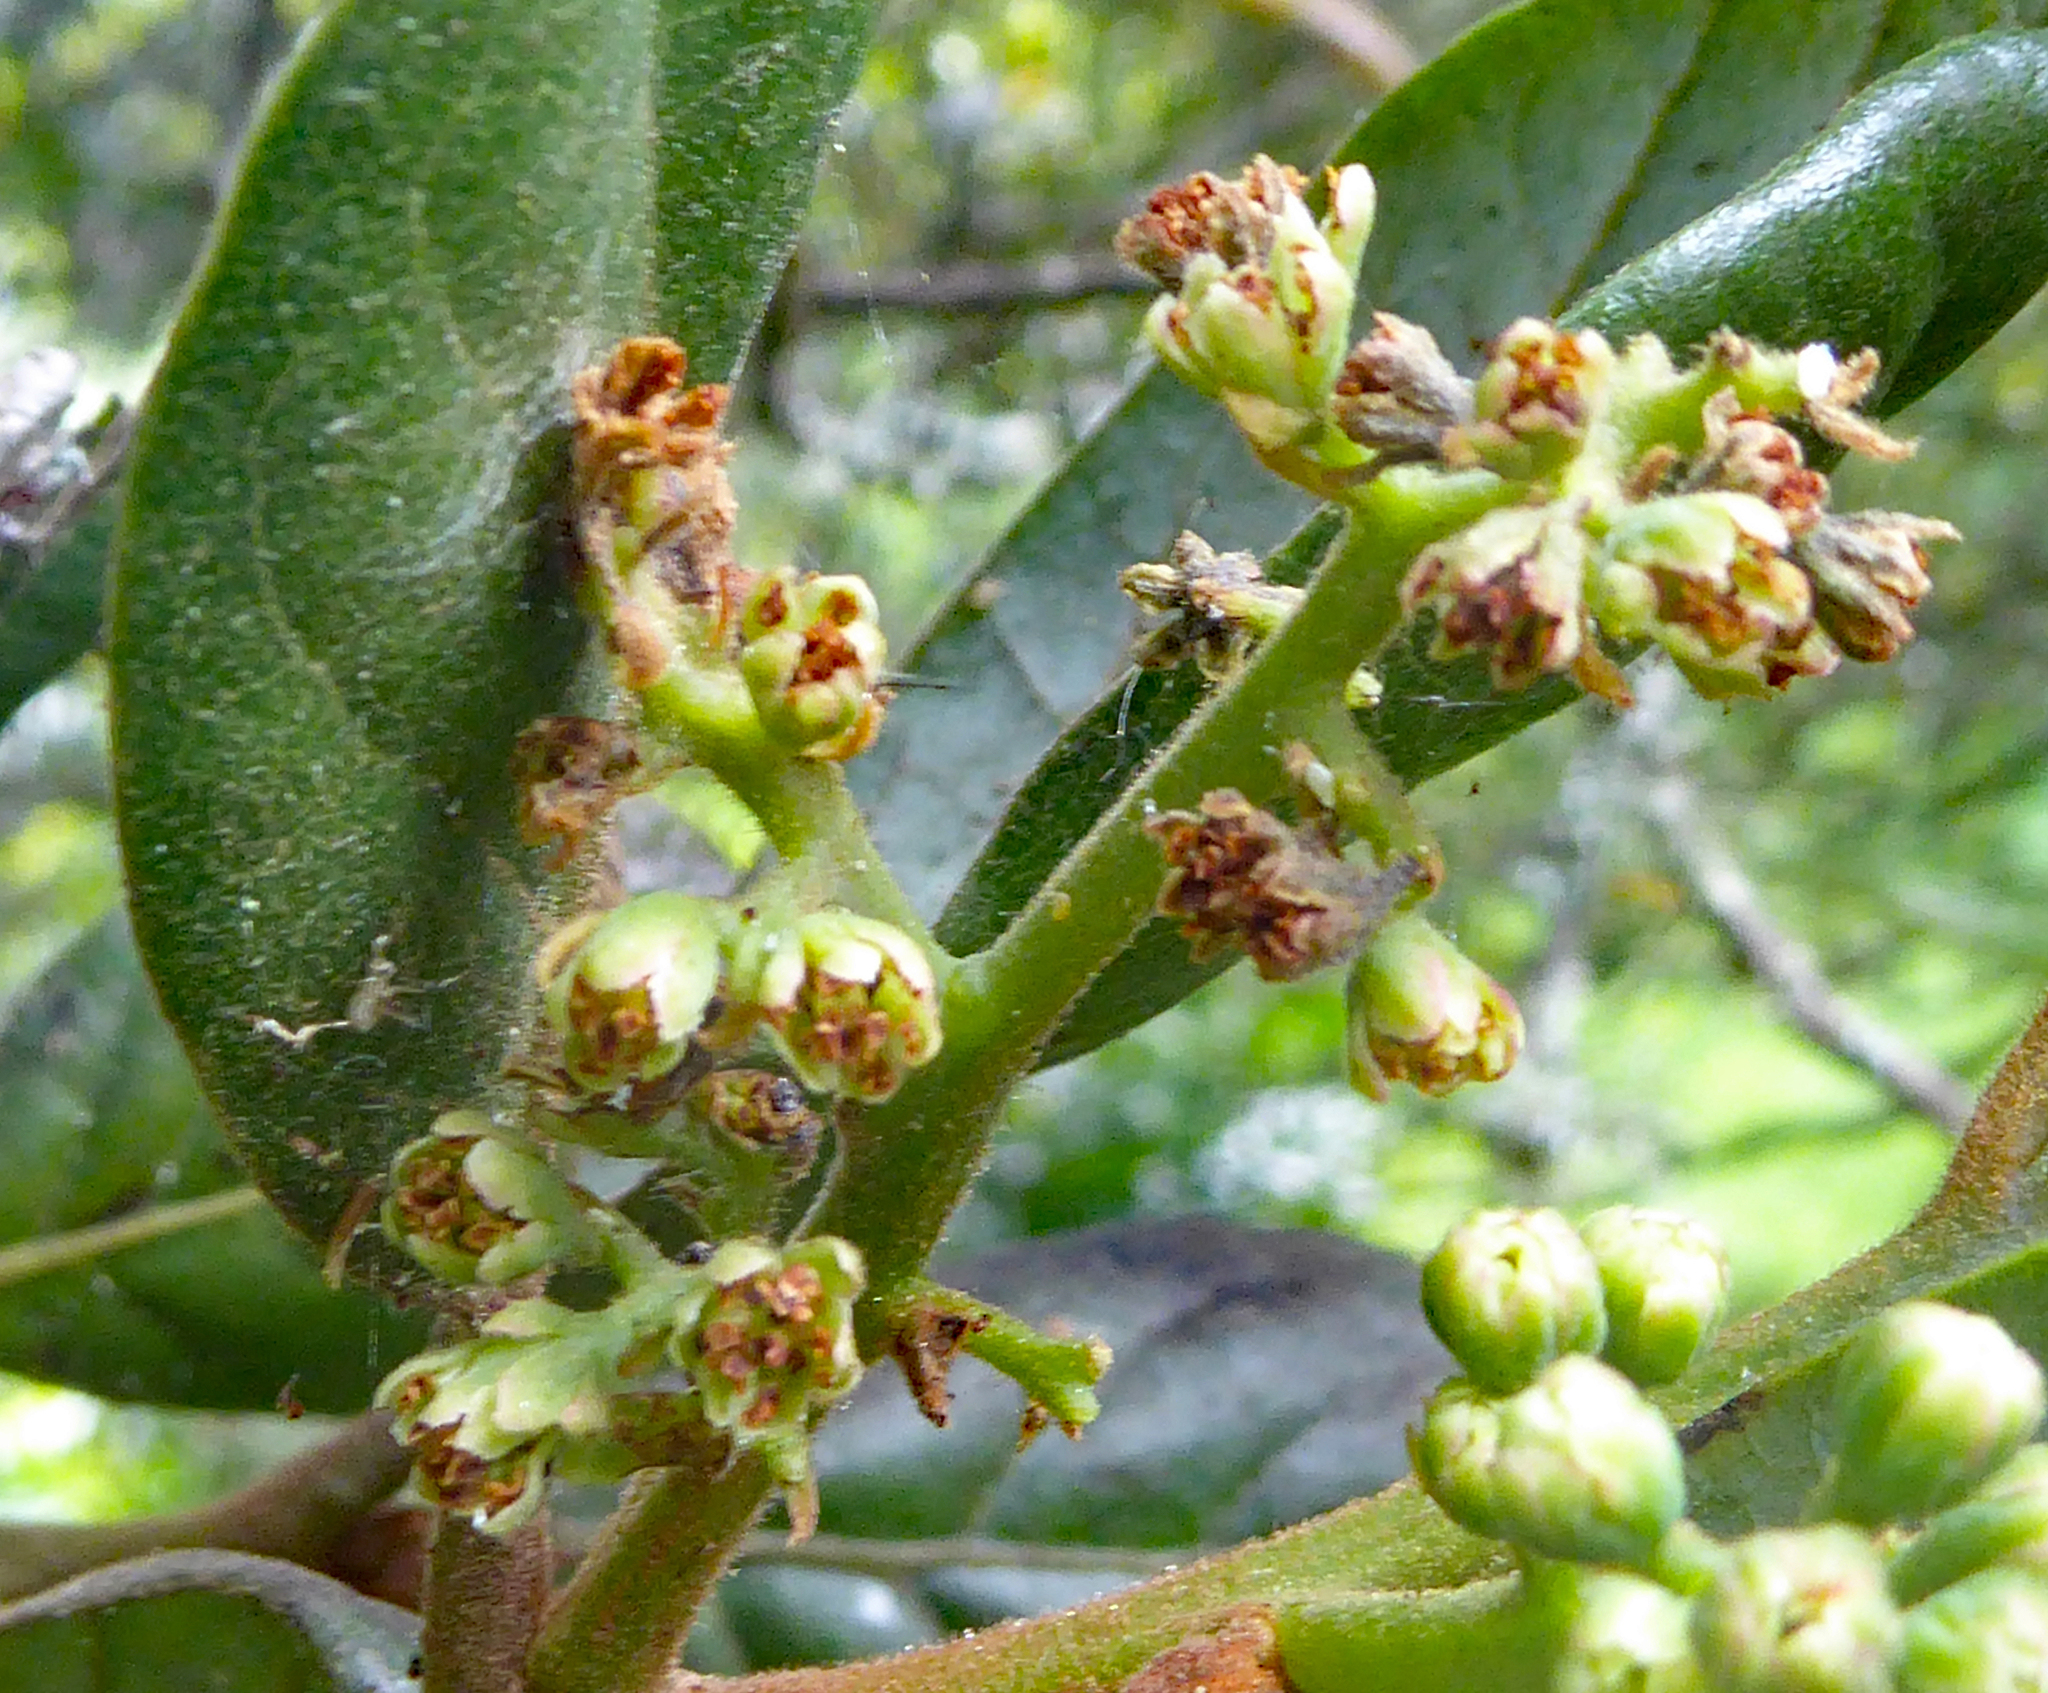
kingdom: Plantae
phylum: Tracheophyta
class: Magnoliopsida
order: Laurales
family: Lauraceae
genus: Beilschmiedia
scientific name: Beilschmiedia tarairi
